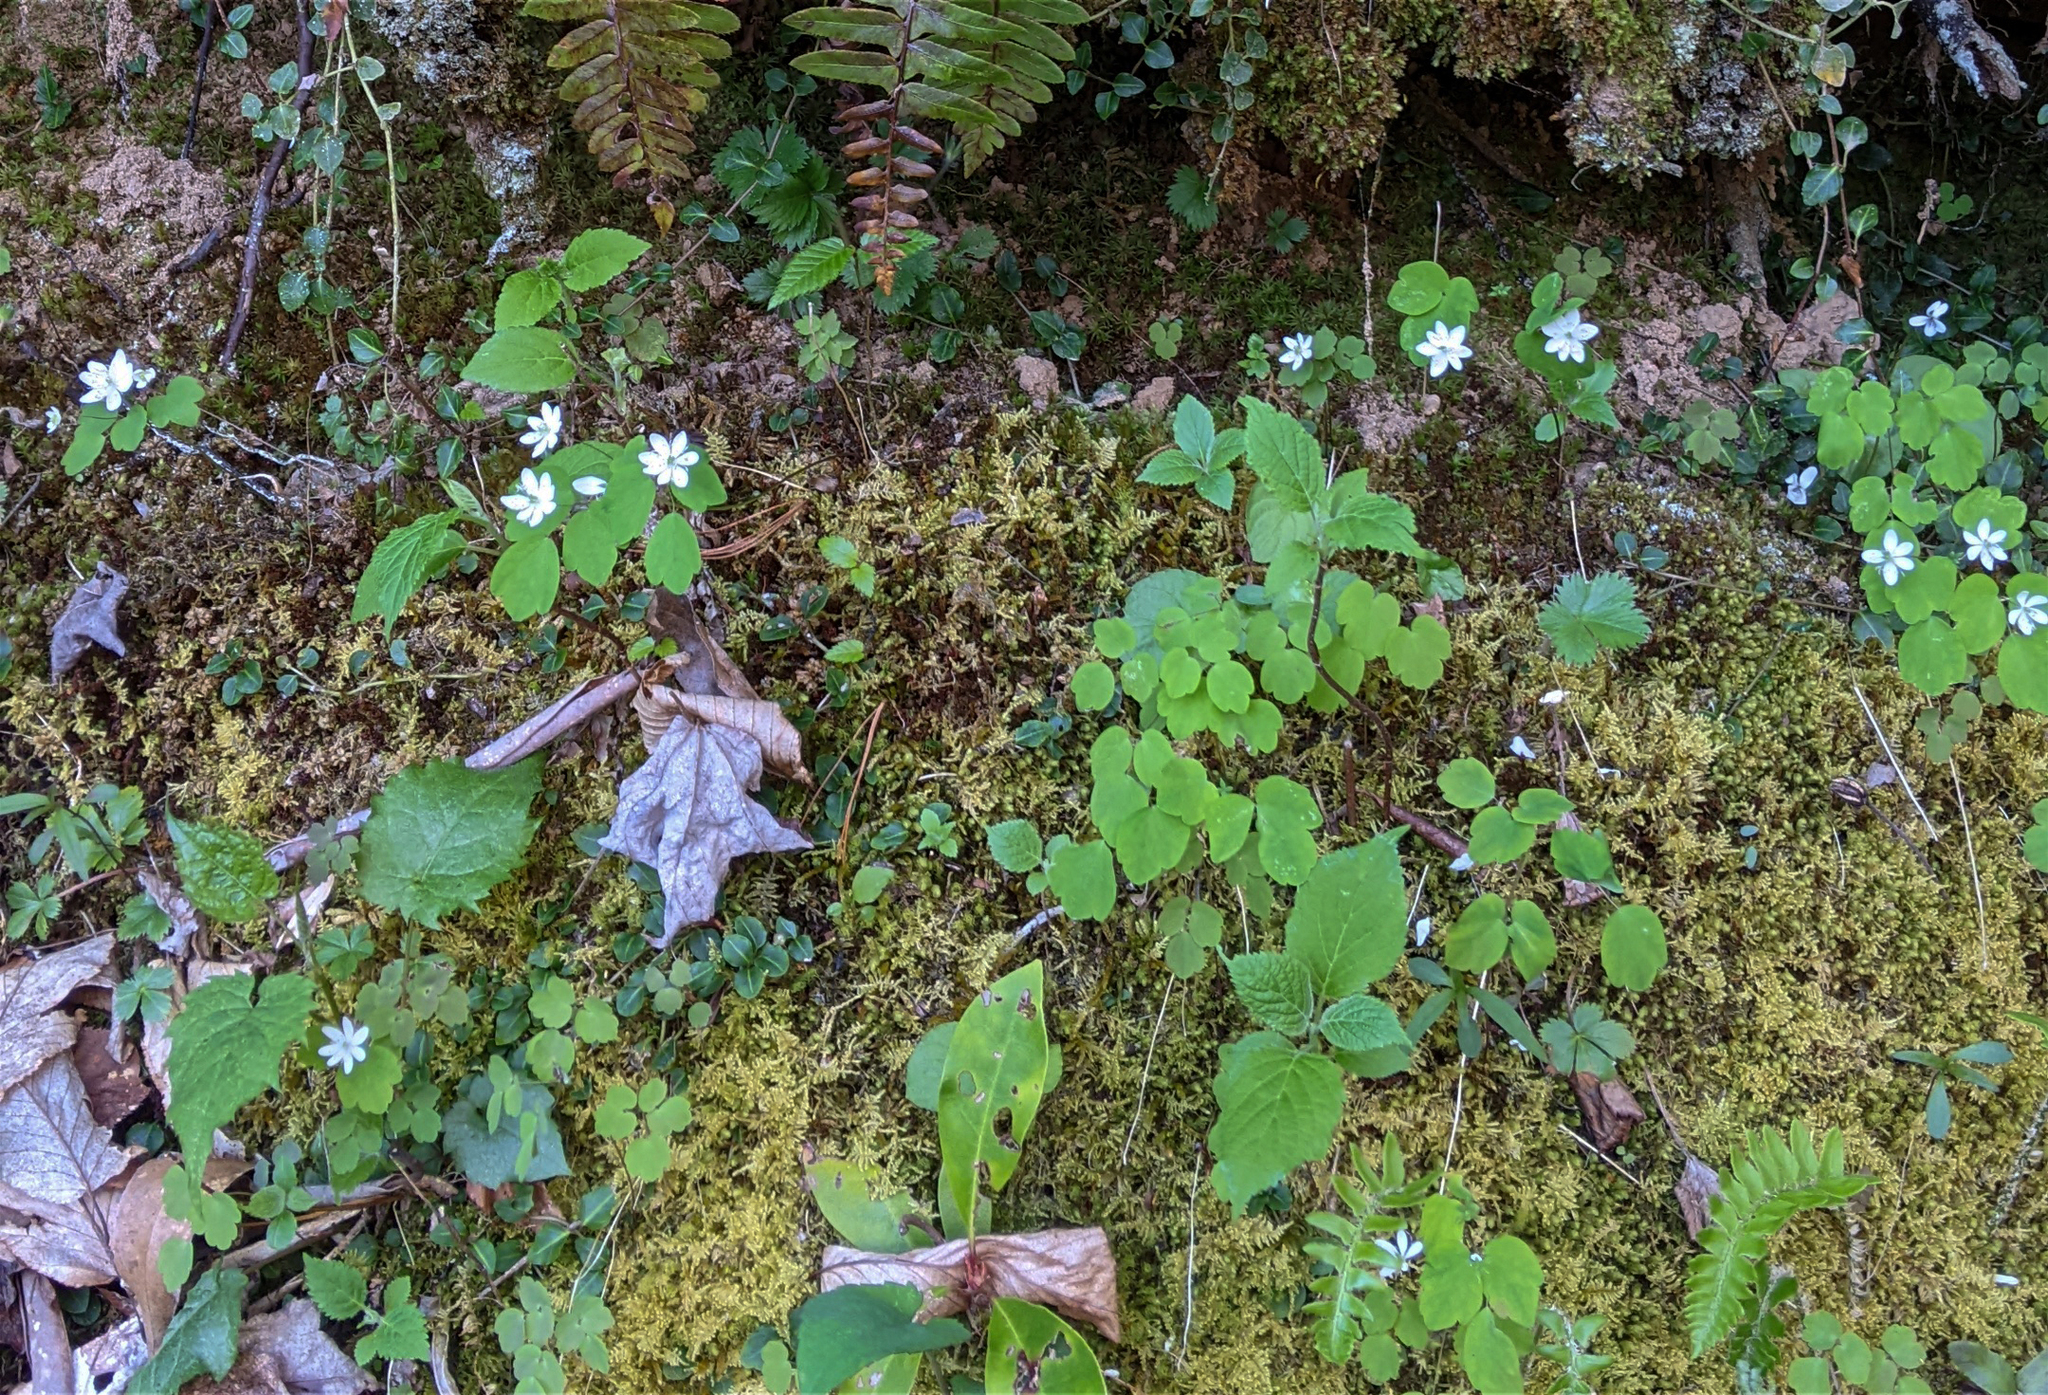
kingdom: Plantae
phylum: Tracheophyta
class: Magnoliopsida
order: Ranunculales
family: Ranunculaceae
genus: Thalictrum
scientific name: Thalictrum thalictroides
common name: Rue-anemone
